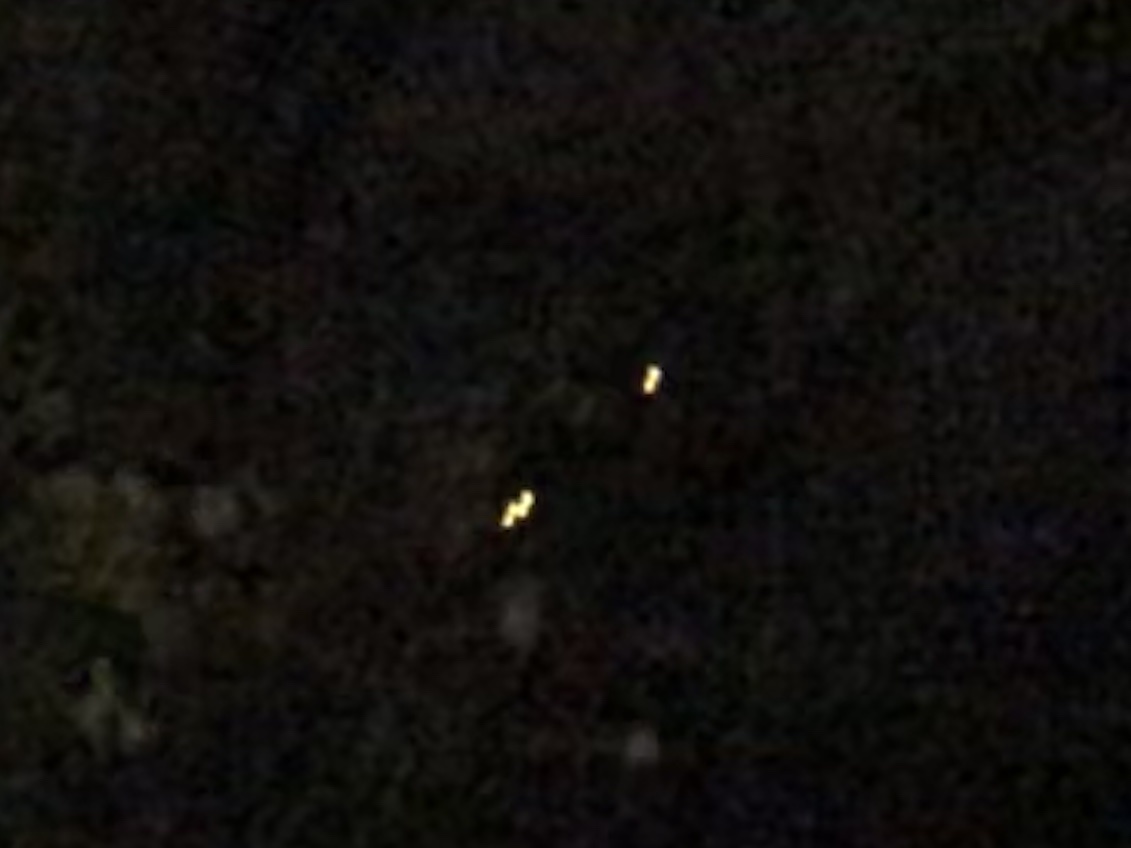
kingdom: Animalia
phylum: Chordata
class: Mammalia
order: Carnivora
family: Procyonidae
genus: Procyon
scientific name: Procyon lotor
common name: Raccoon
